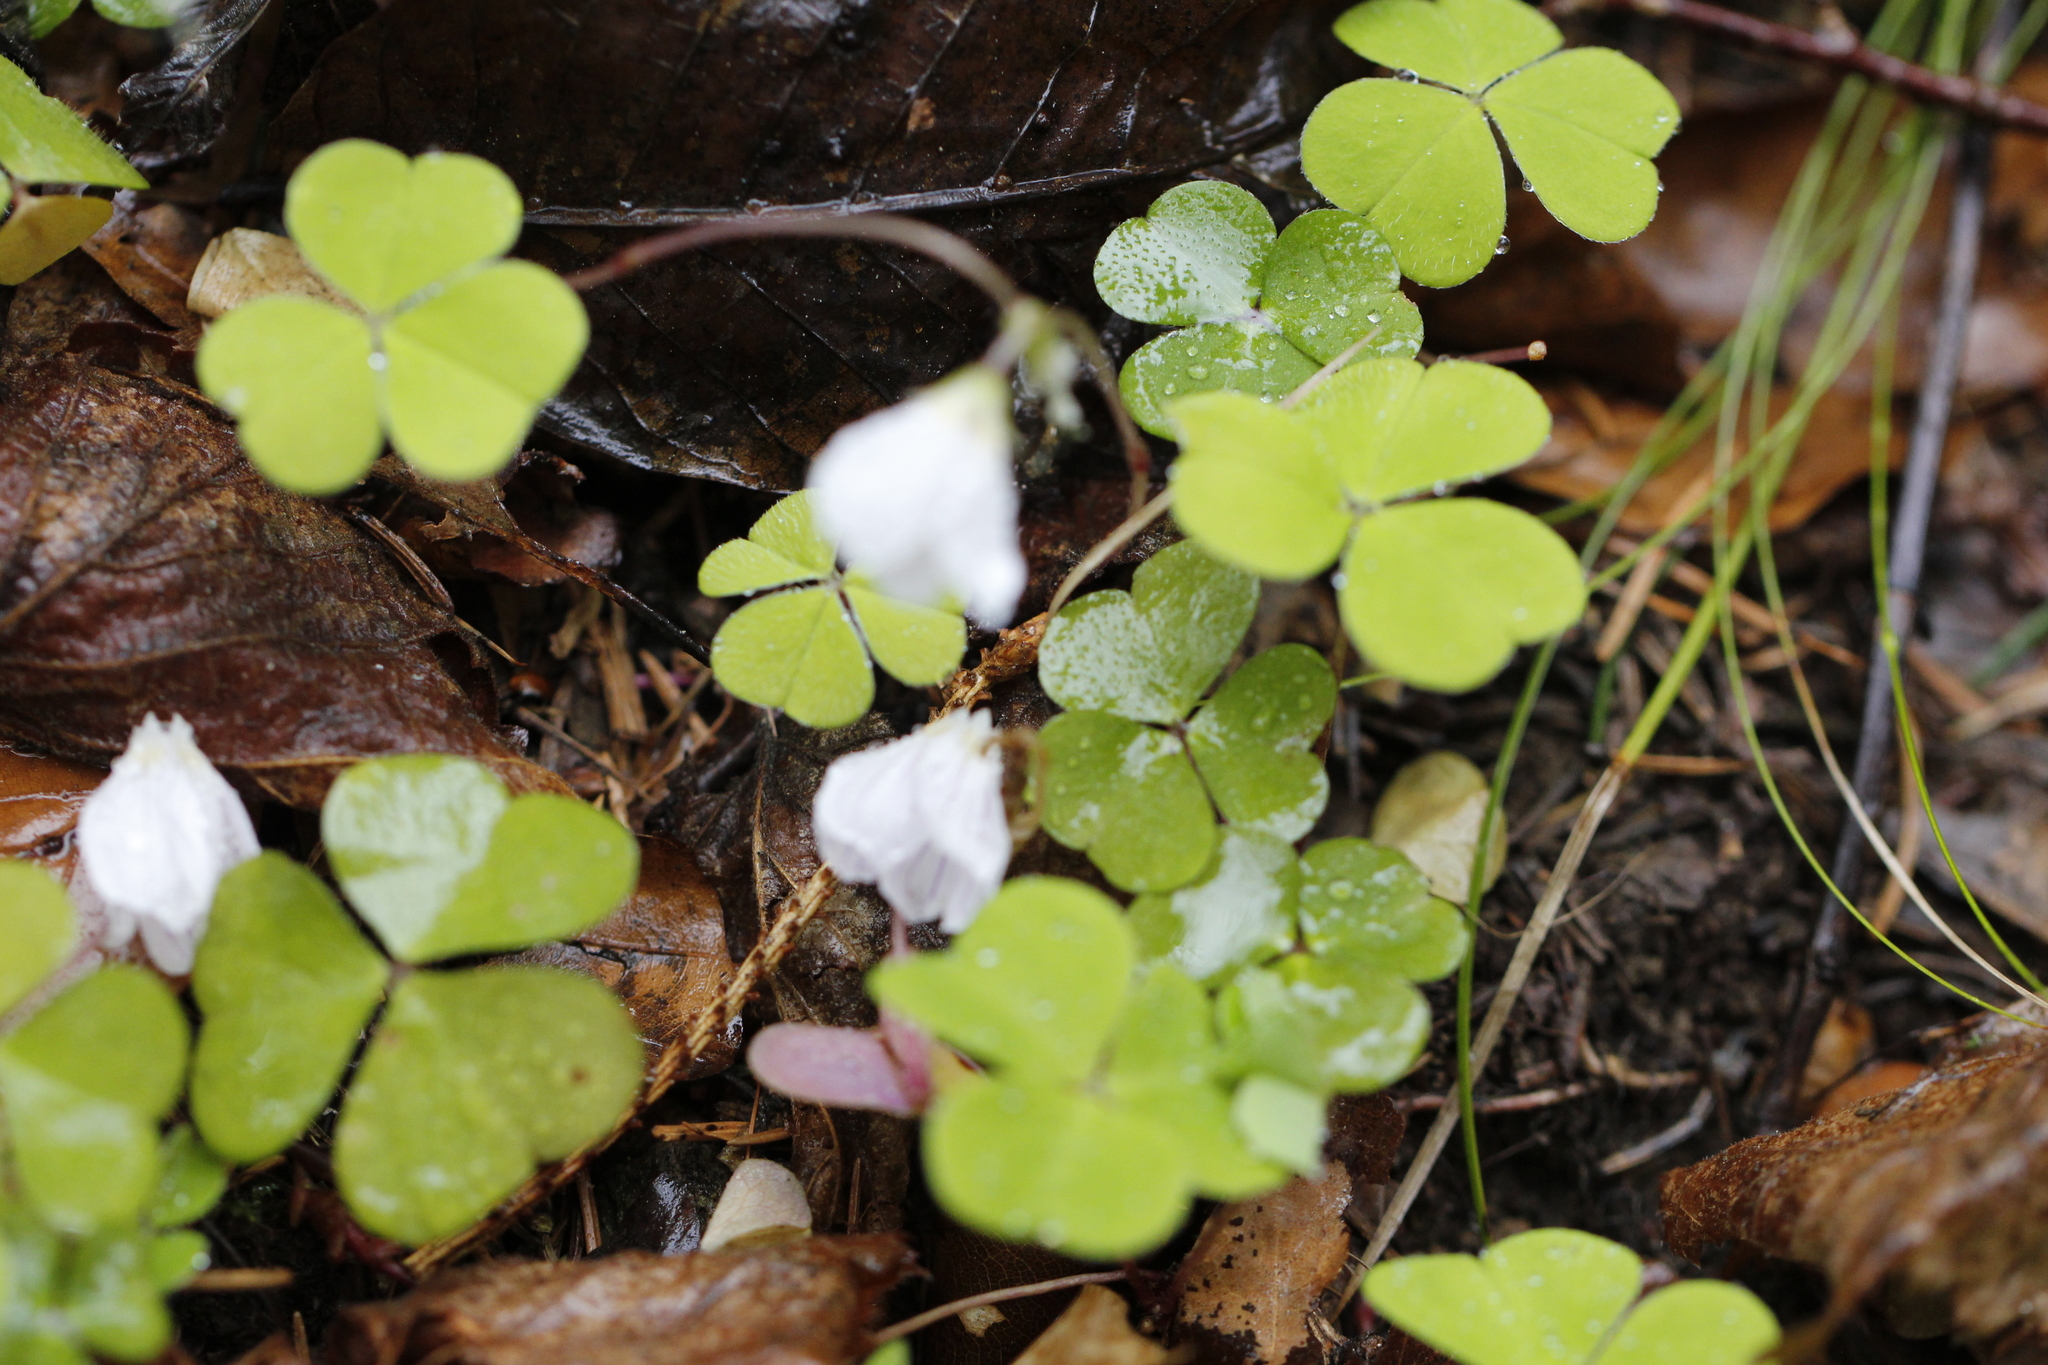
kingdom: Plantae
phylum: Tracheophyta
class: Magnoliopsida
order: Oxalidales
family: Oxalidaceae
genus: Oxalis
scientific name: Oxalis acetosella
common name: Wood-sorrel
